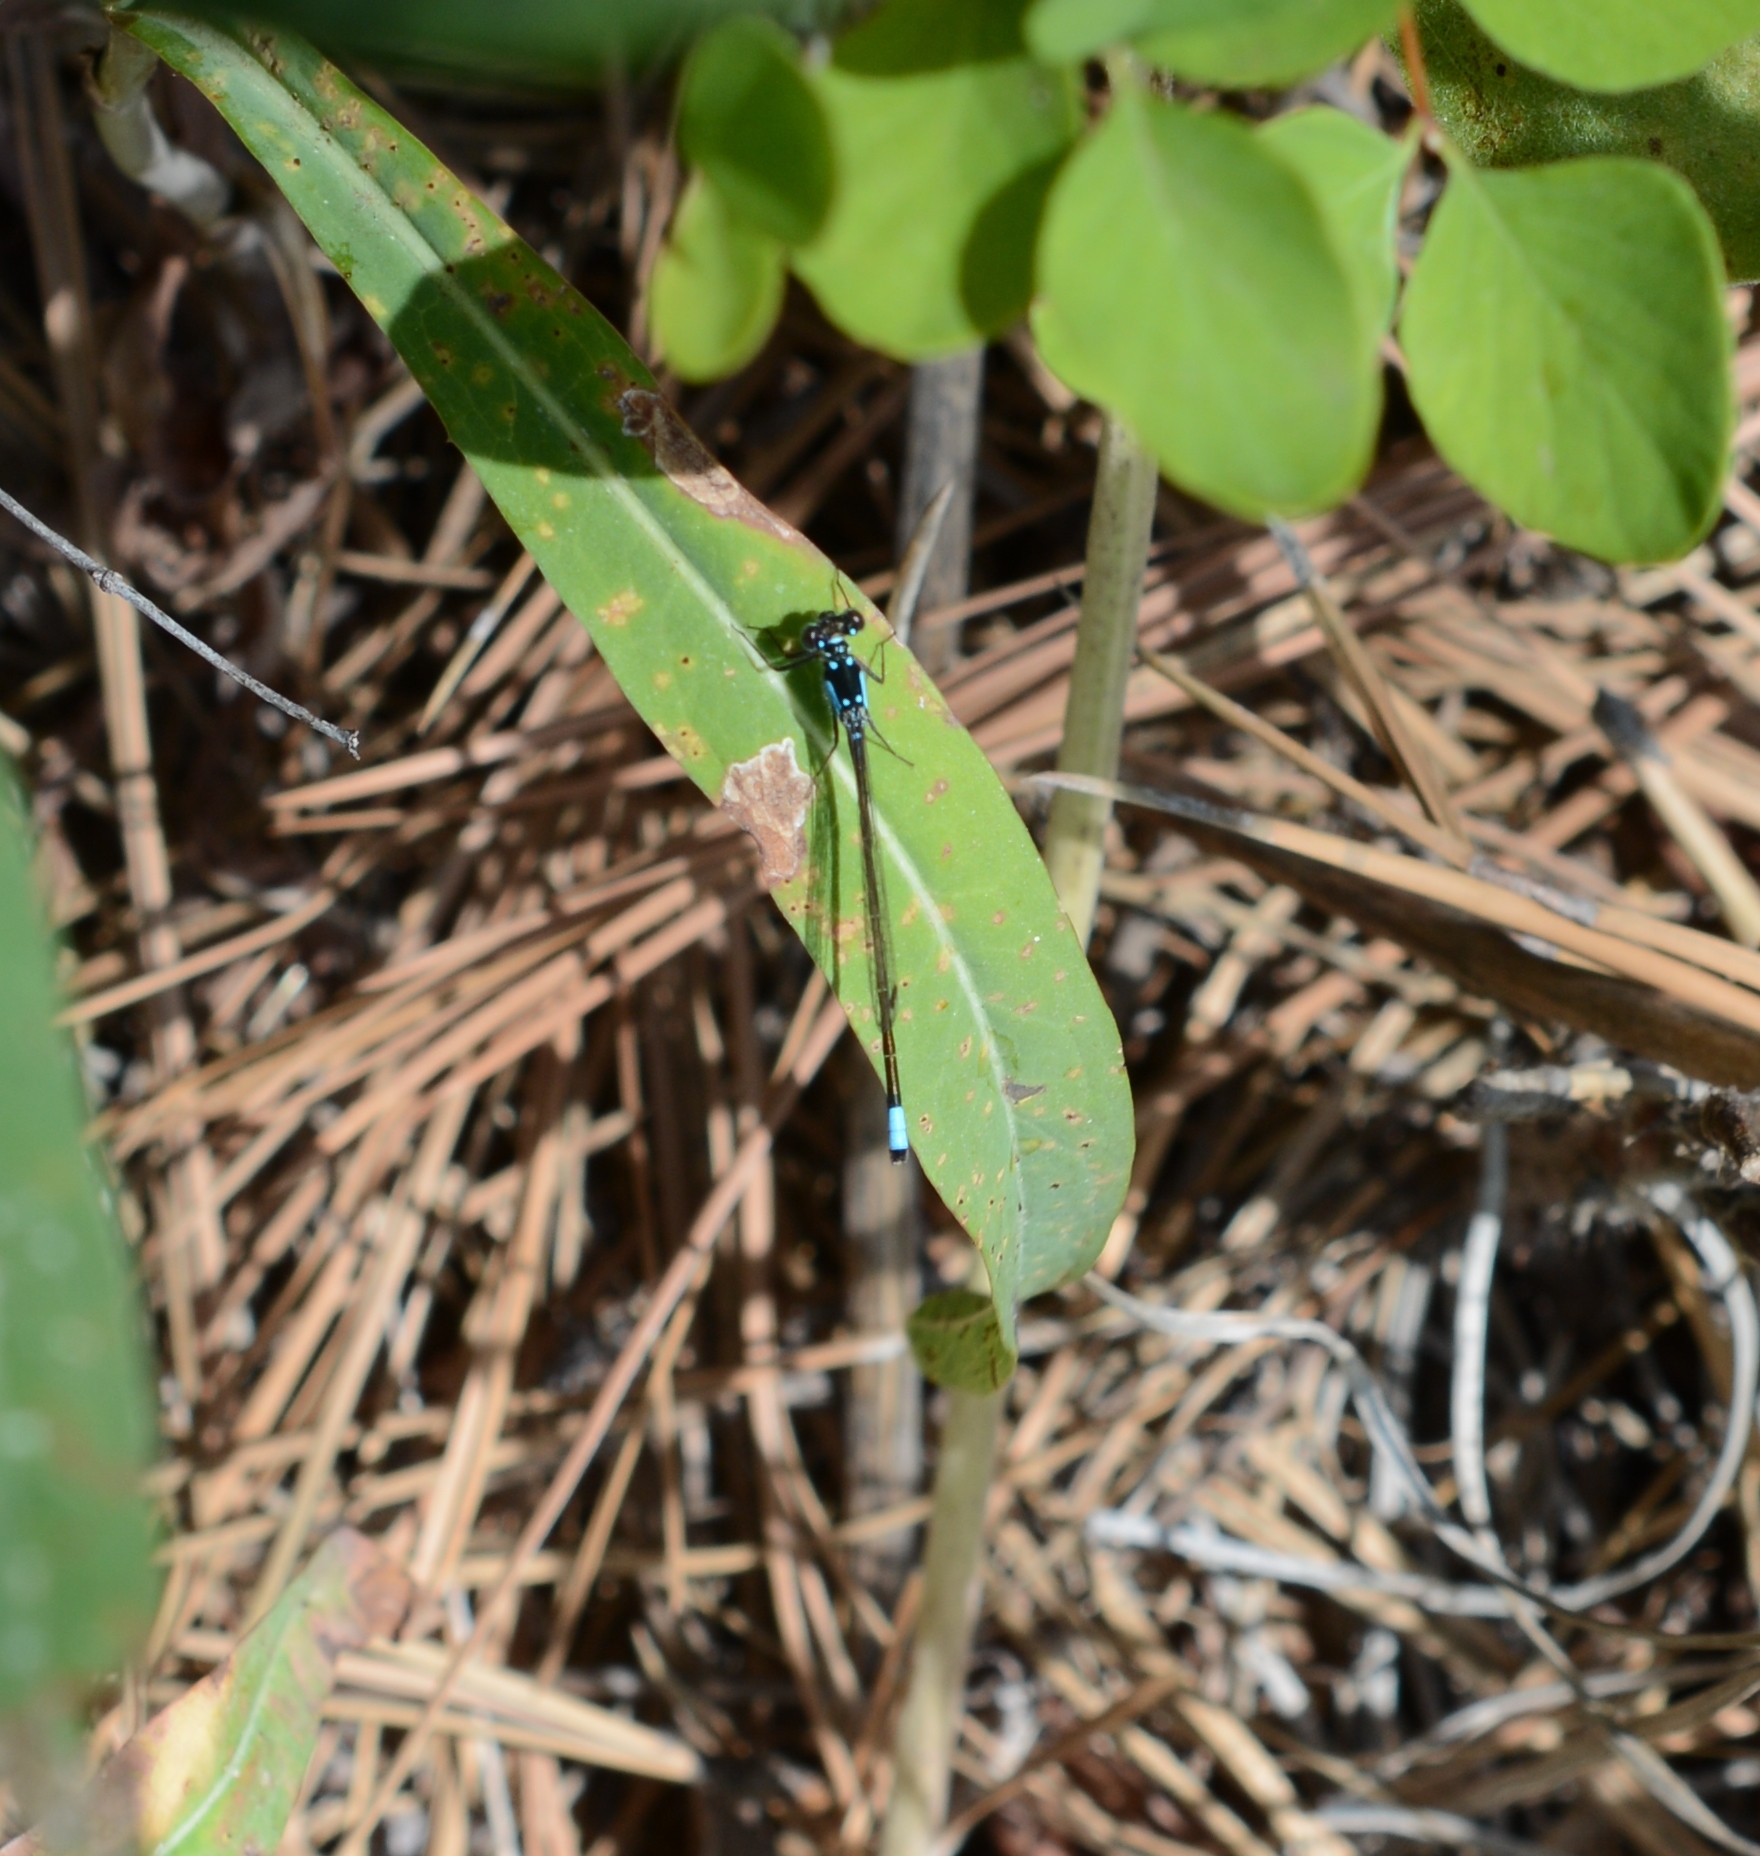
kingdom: Animalia
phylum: Arthropoda
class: Insecta
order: Odonata
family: Coenagrionidae
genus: Ischnura
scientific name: Ischnura cervula
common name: Pacific forktail
